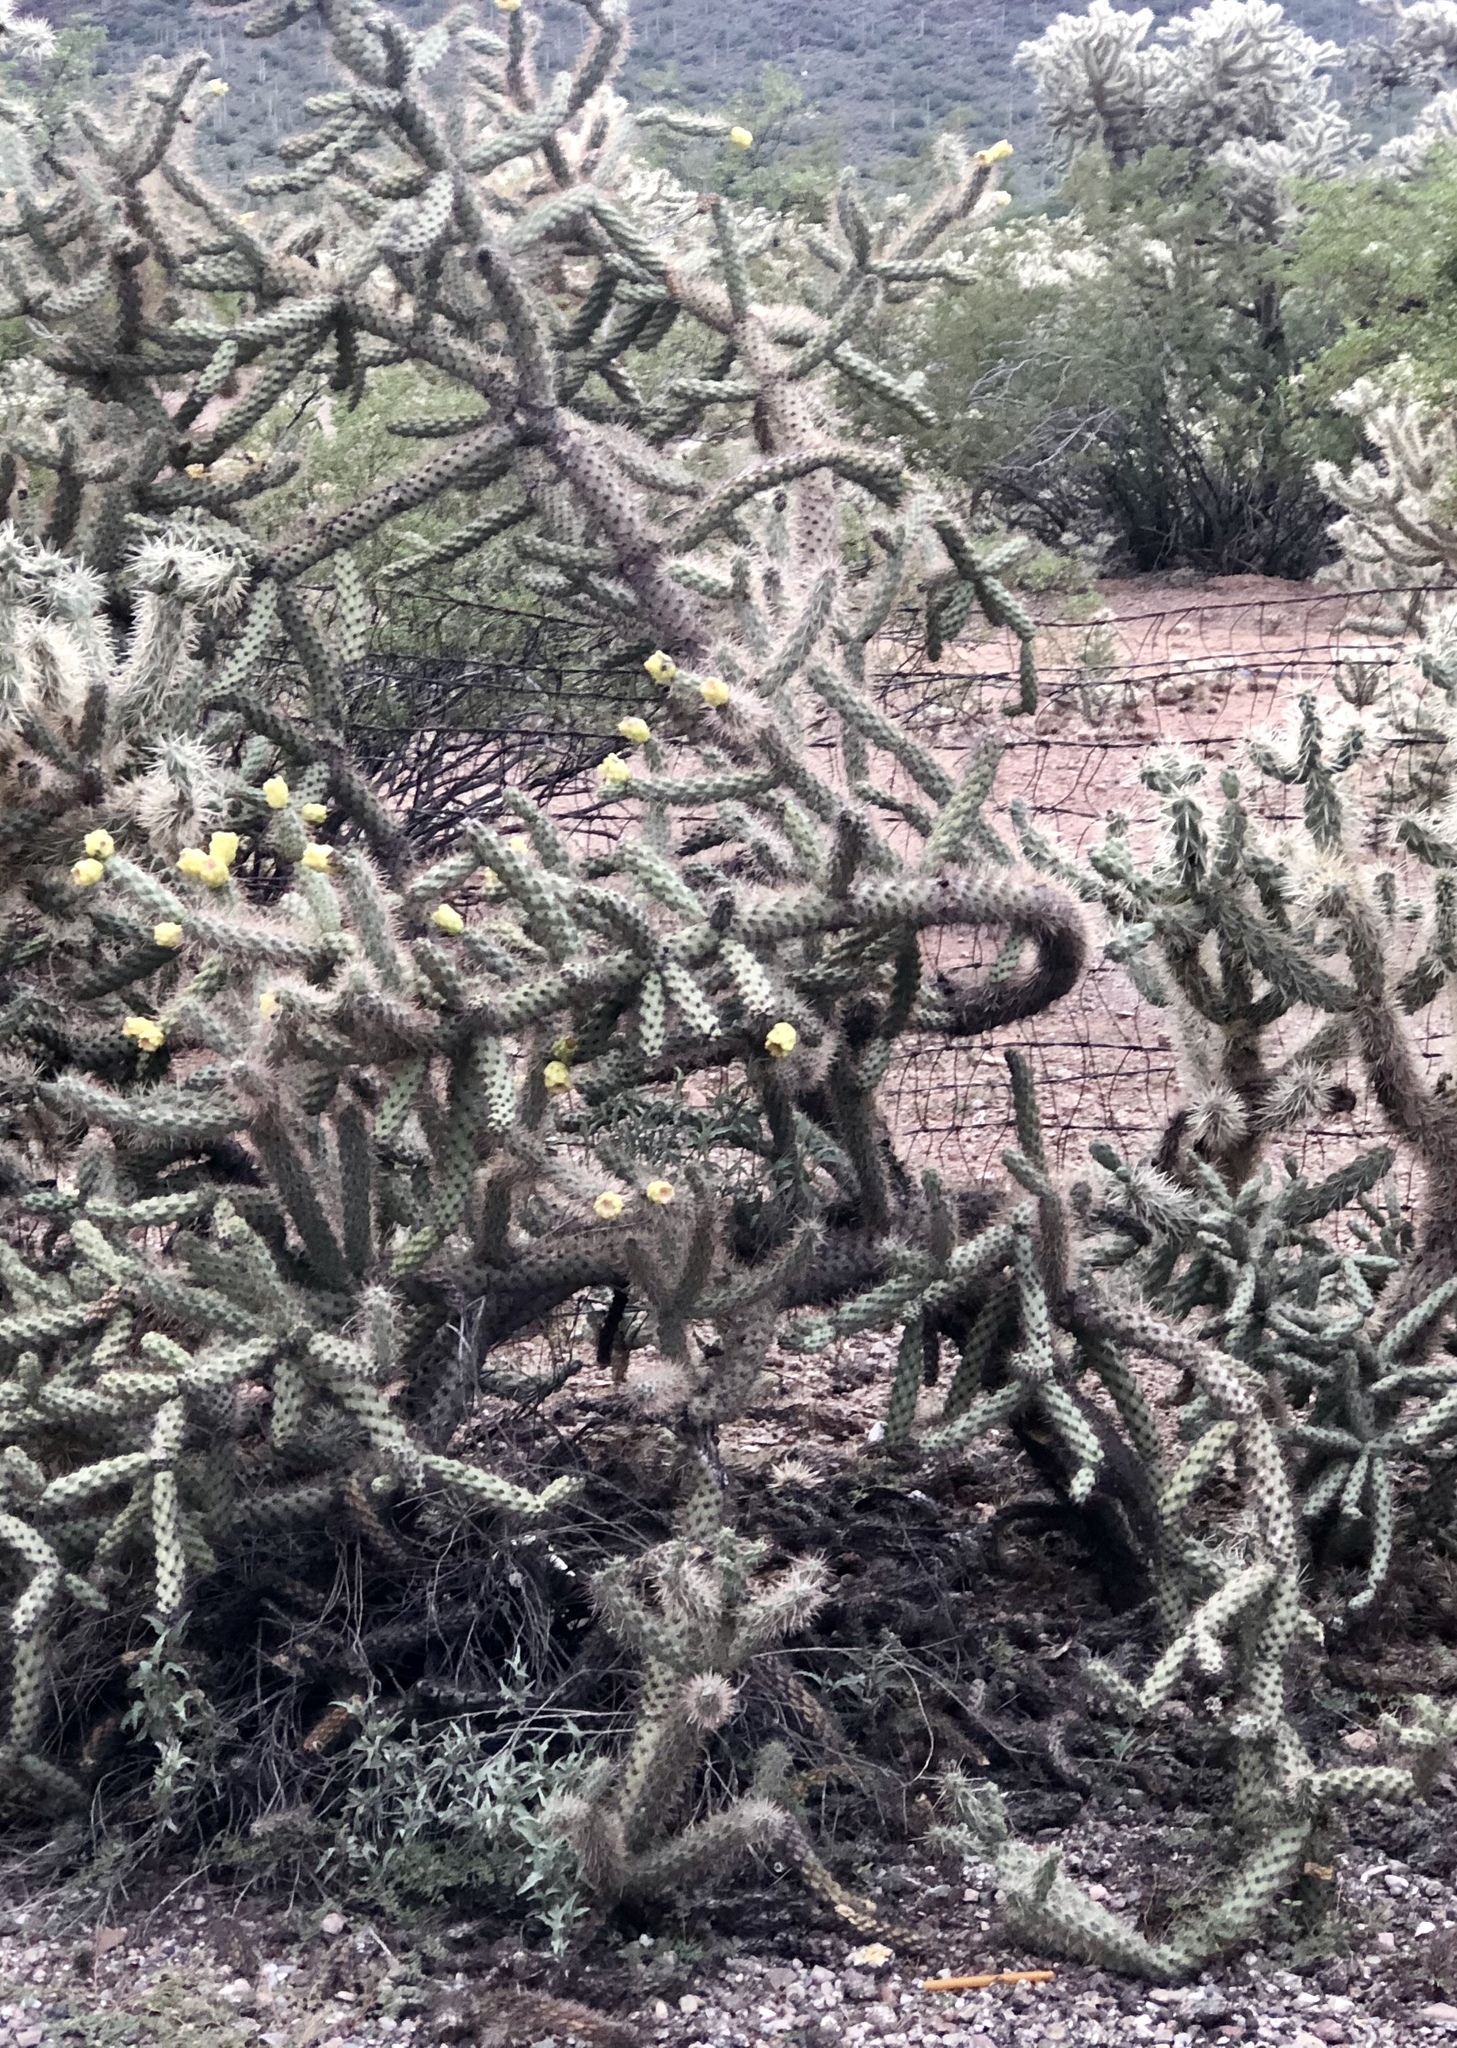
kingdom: Plantae
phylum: Tracheophyta
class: Magnoliopsida
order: Caryophyllales
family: Cactaceae
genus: Cylindropuntia
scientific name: Cylindropuntia imbricata
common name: Candelabrum cactus
